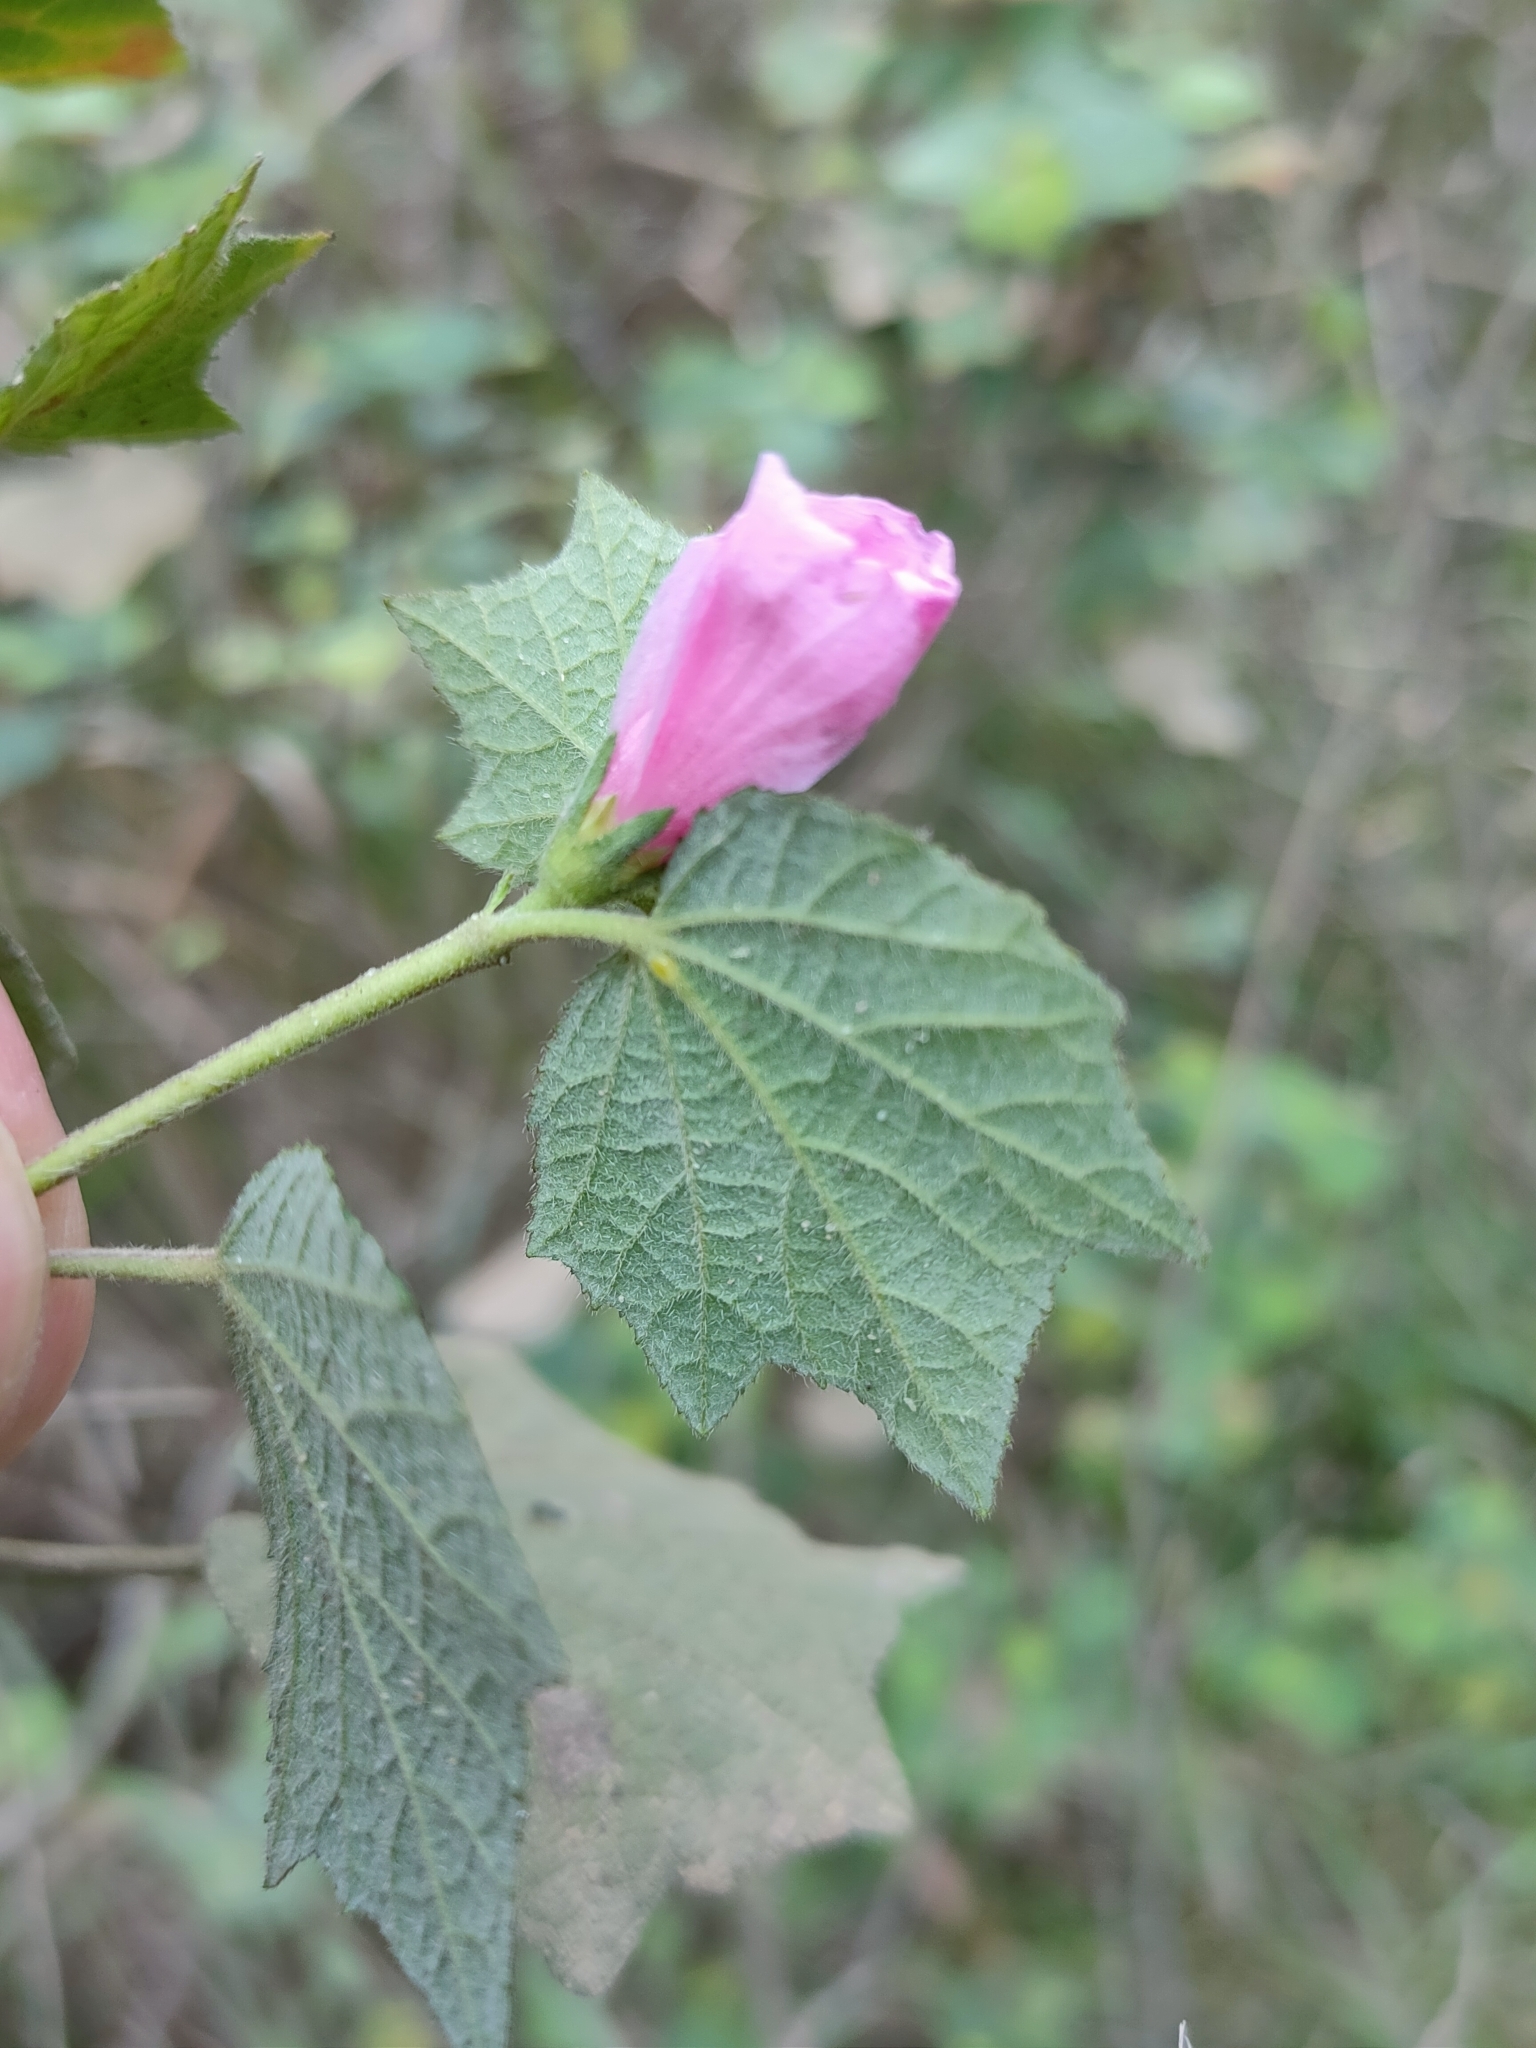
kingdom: Plantae
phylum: Tracheophyta
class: Magnoliopsida
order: Malvales
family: Malvaceae
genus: Urena
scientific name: Urena lobata
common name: Caesarweed
